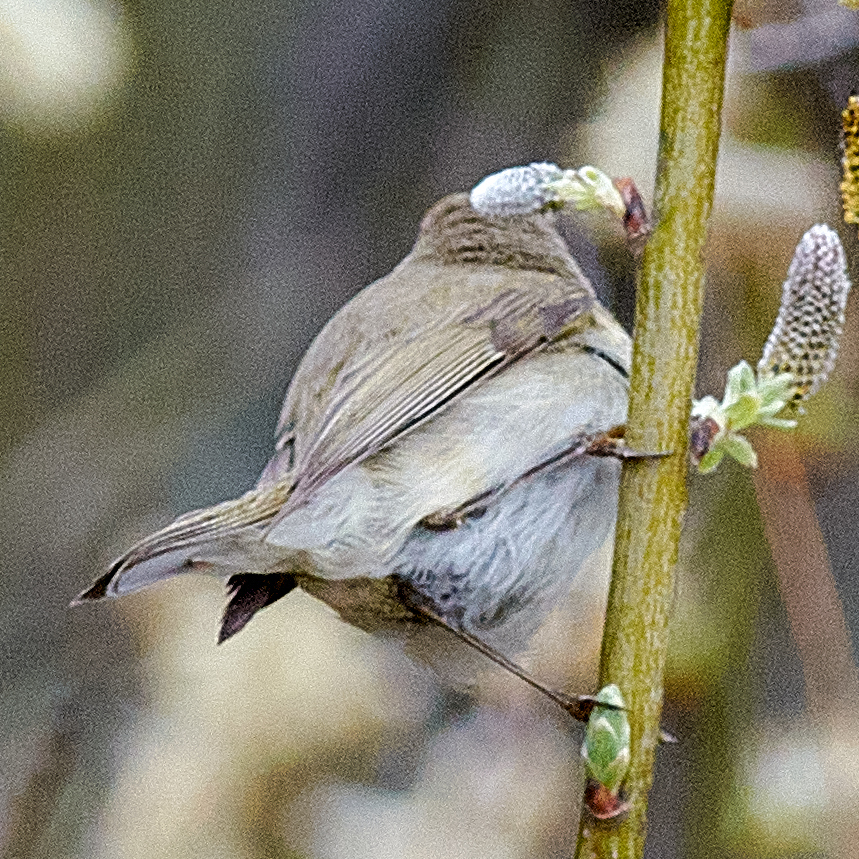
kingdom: Animalia
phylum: Chordata
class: Aves
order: Passeriformes
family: Phylloscopidae
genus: Phylloscopus
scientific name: Phylloscopus collybita
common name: Common chiffchaff
